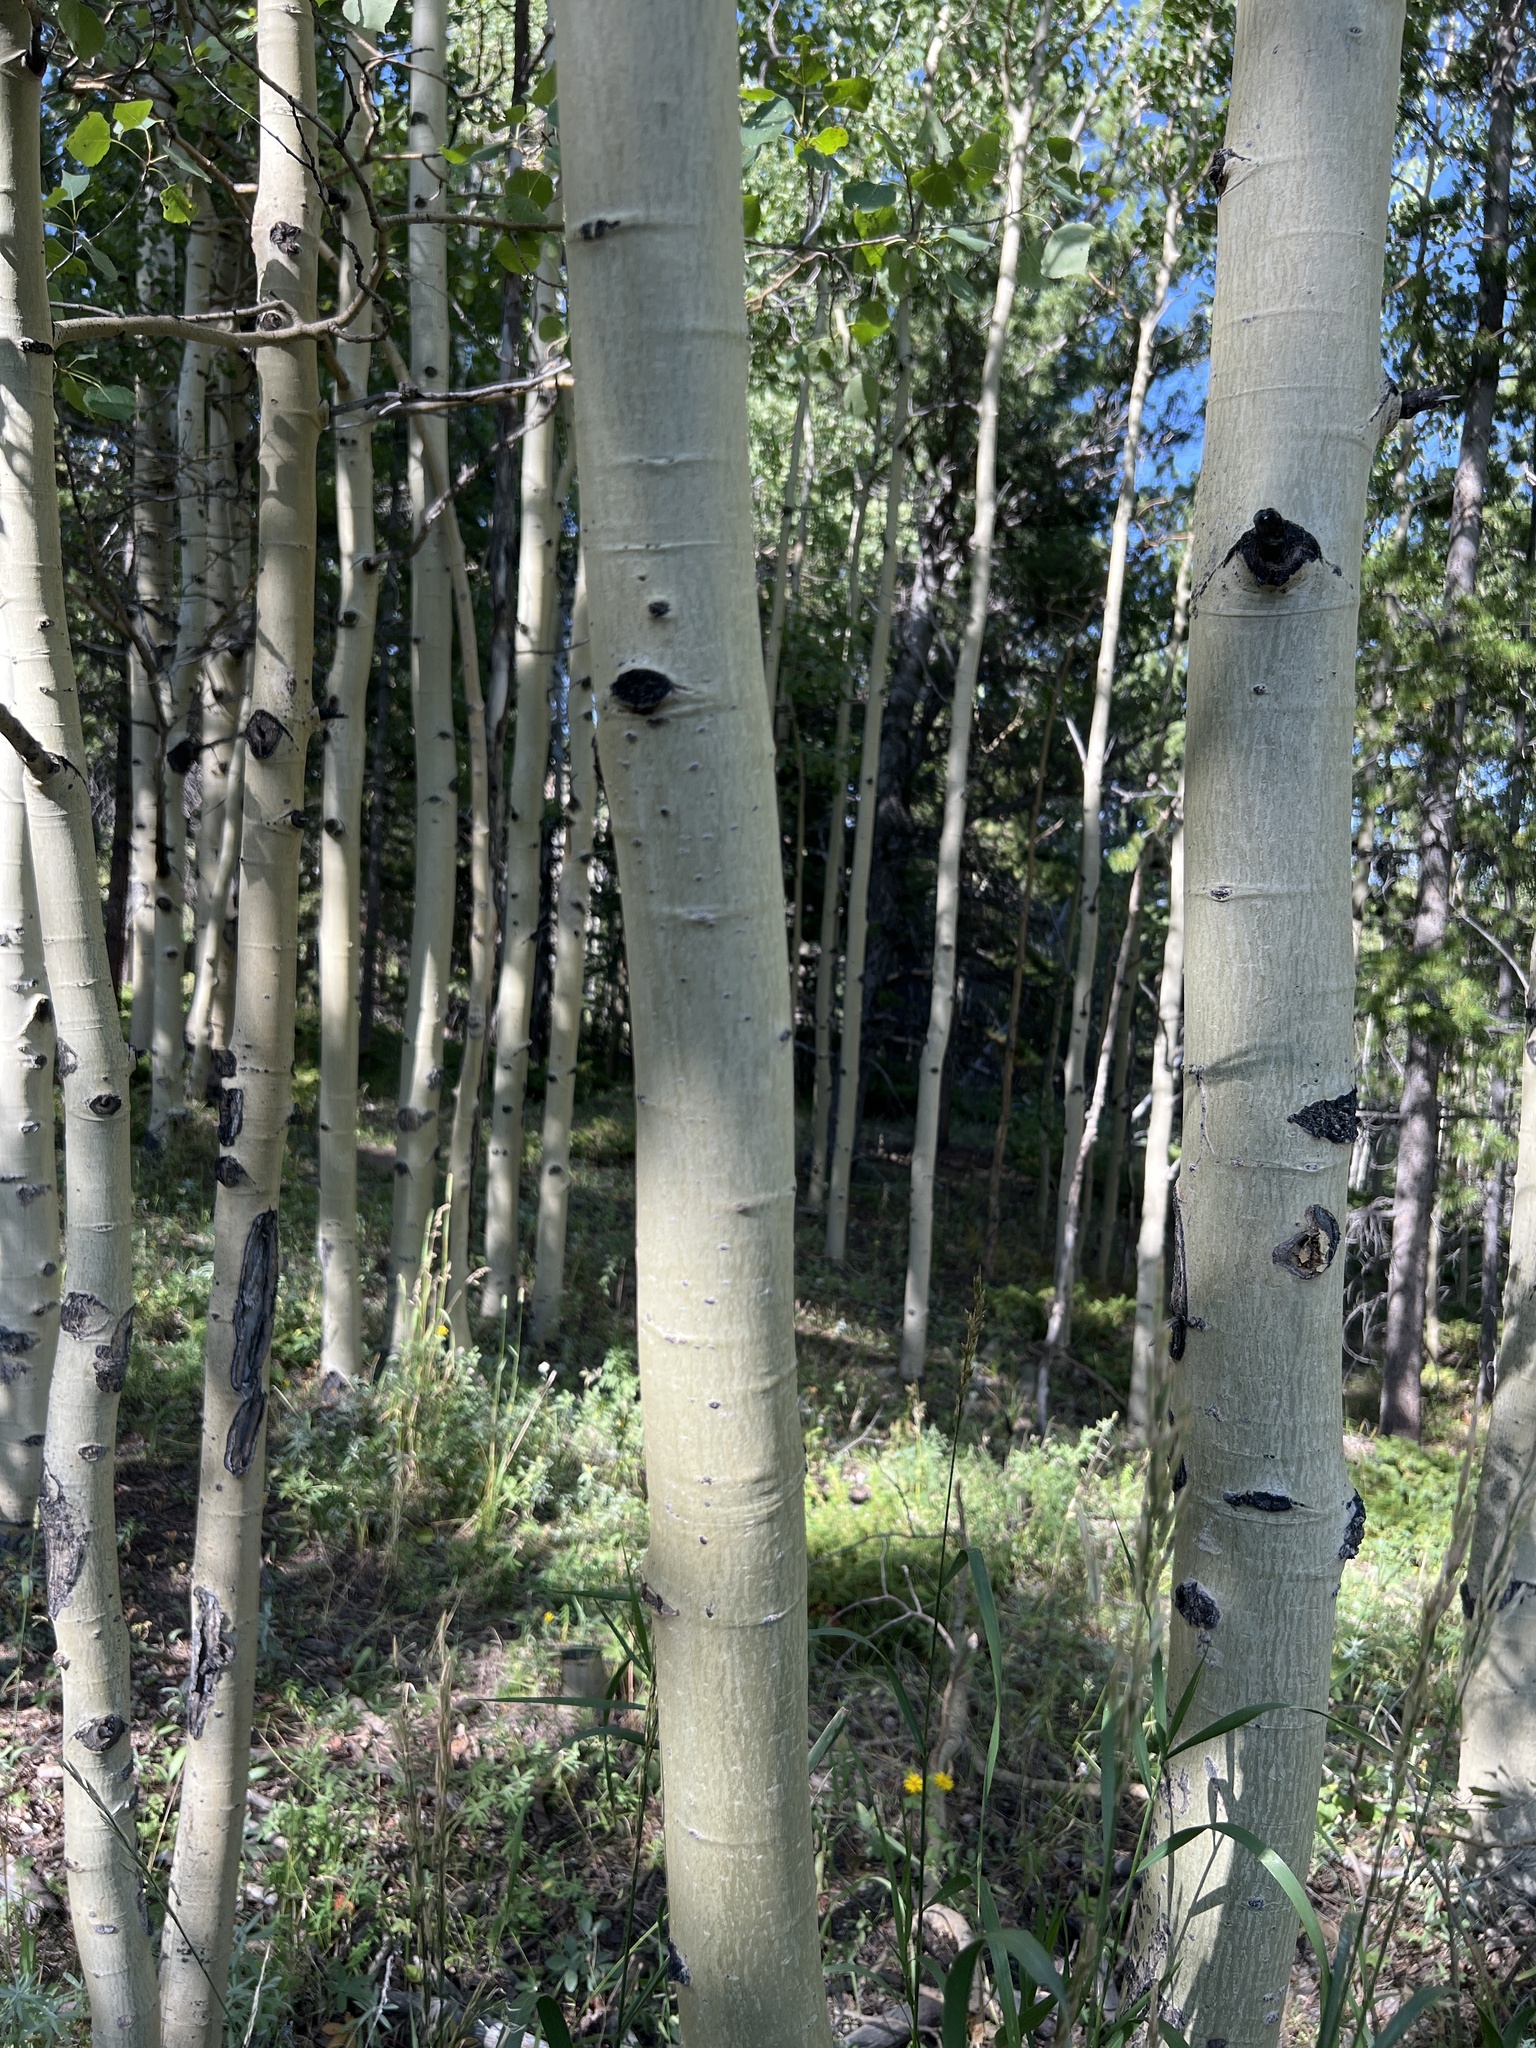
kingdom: Plantae
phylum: Tracheophyta
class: Magnoliopsida
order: Malpighiales
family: Salicaceae
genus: Populus
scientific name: Populus tremuloides
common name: Quaking aspen
